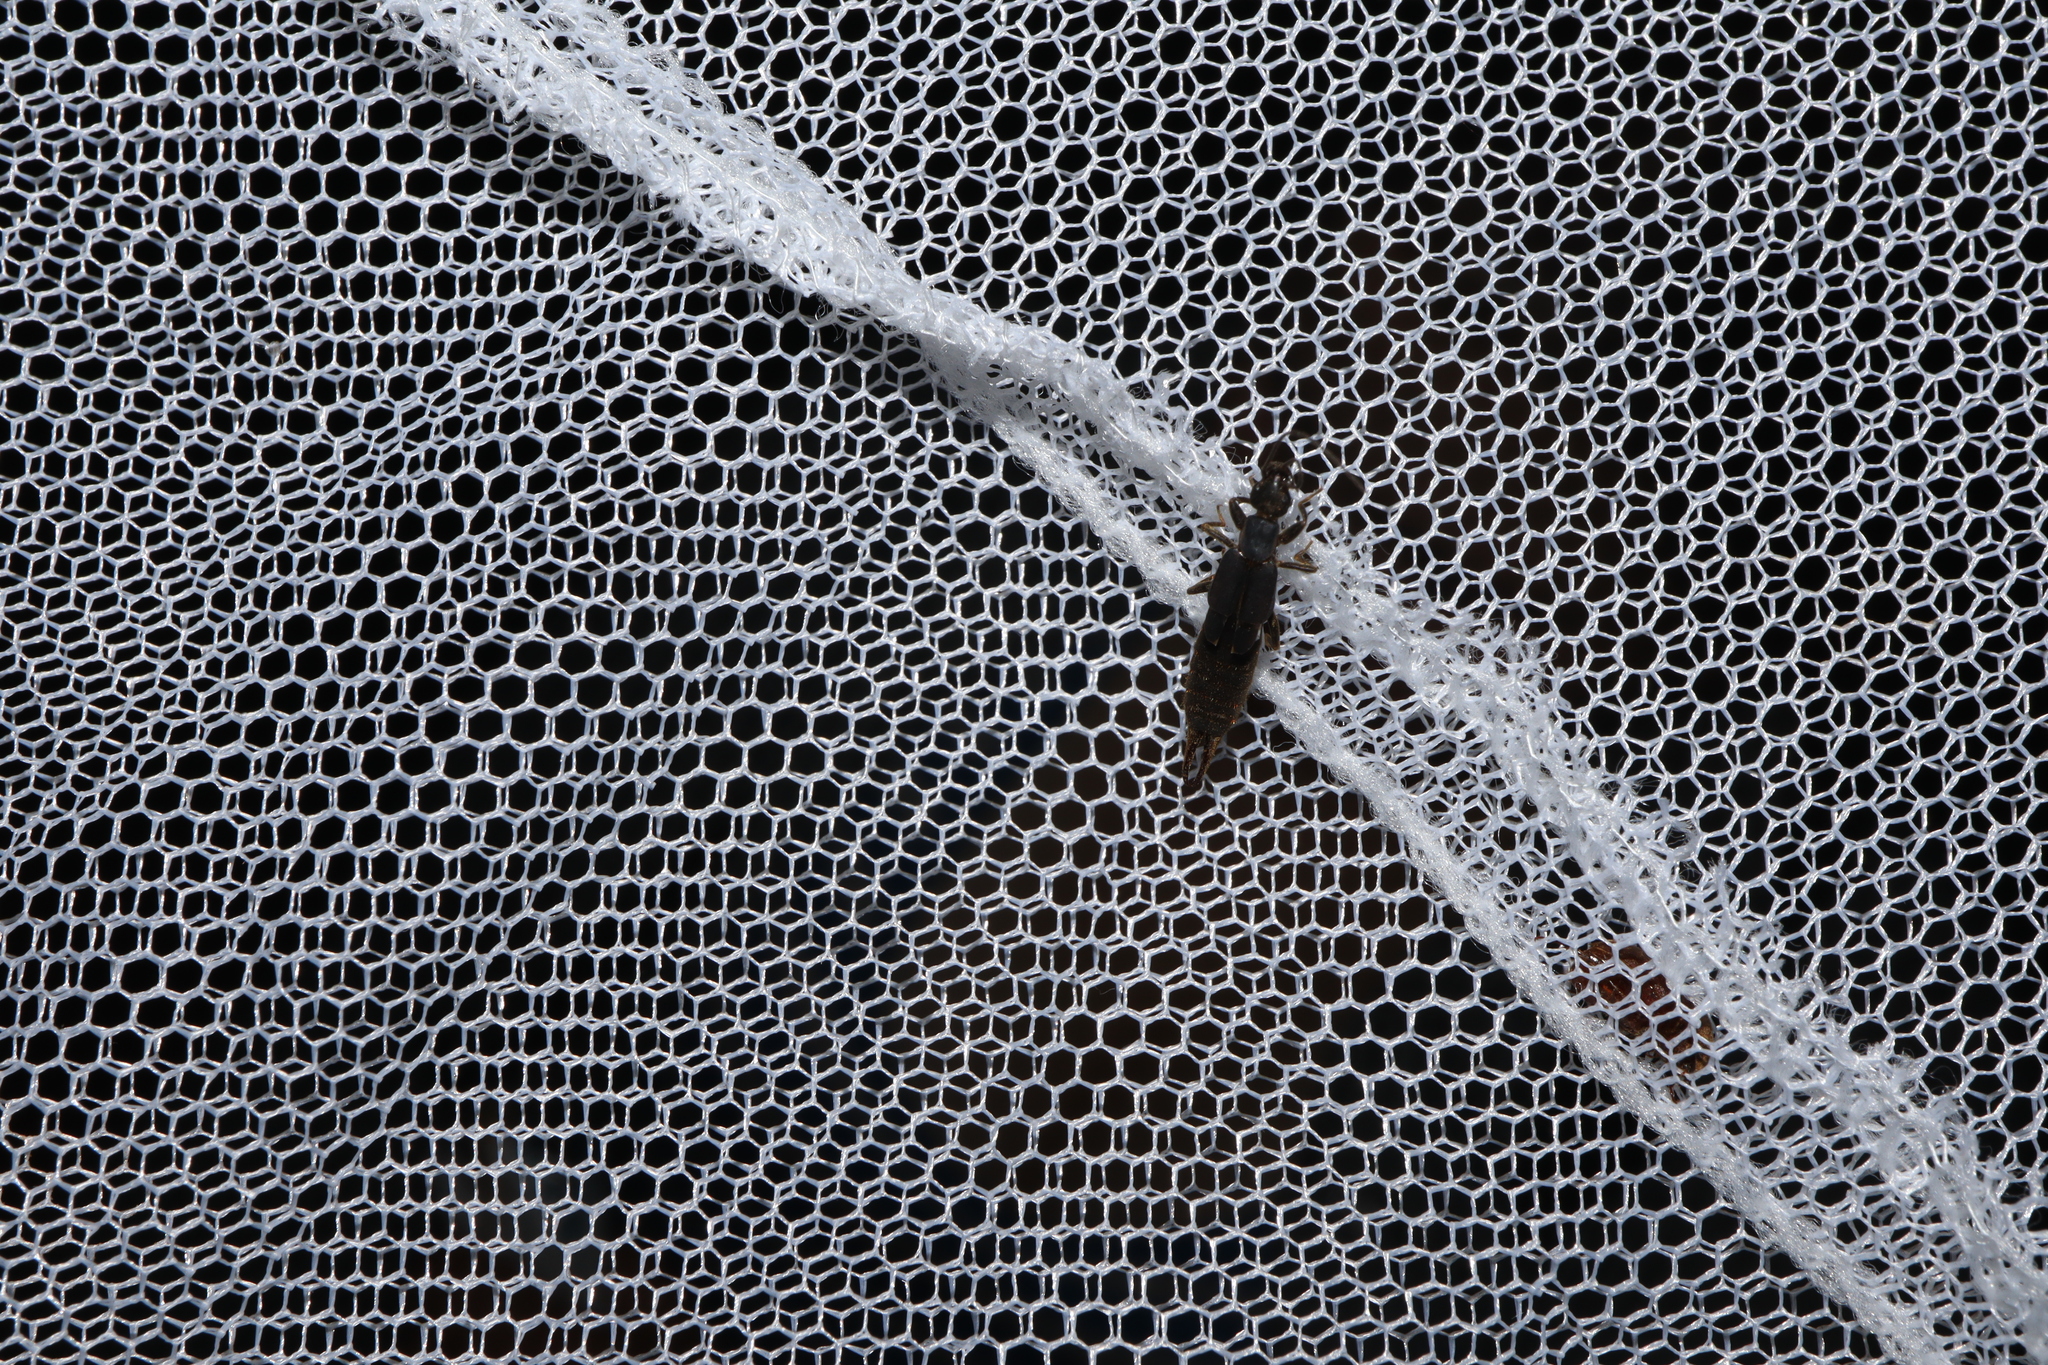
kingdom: Animalia
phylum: Arthropoda
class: Insecta
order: Dermaptera
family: Labiduridae
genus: Nala
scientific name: Nala lividipes
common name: Earwig
